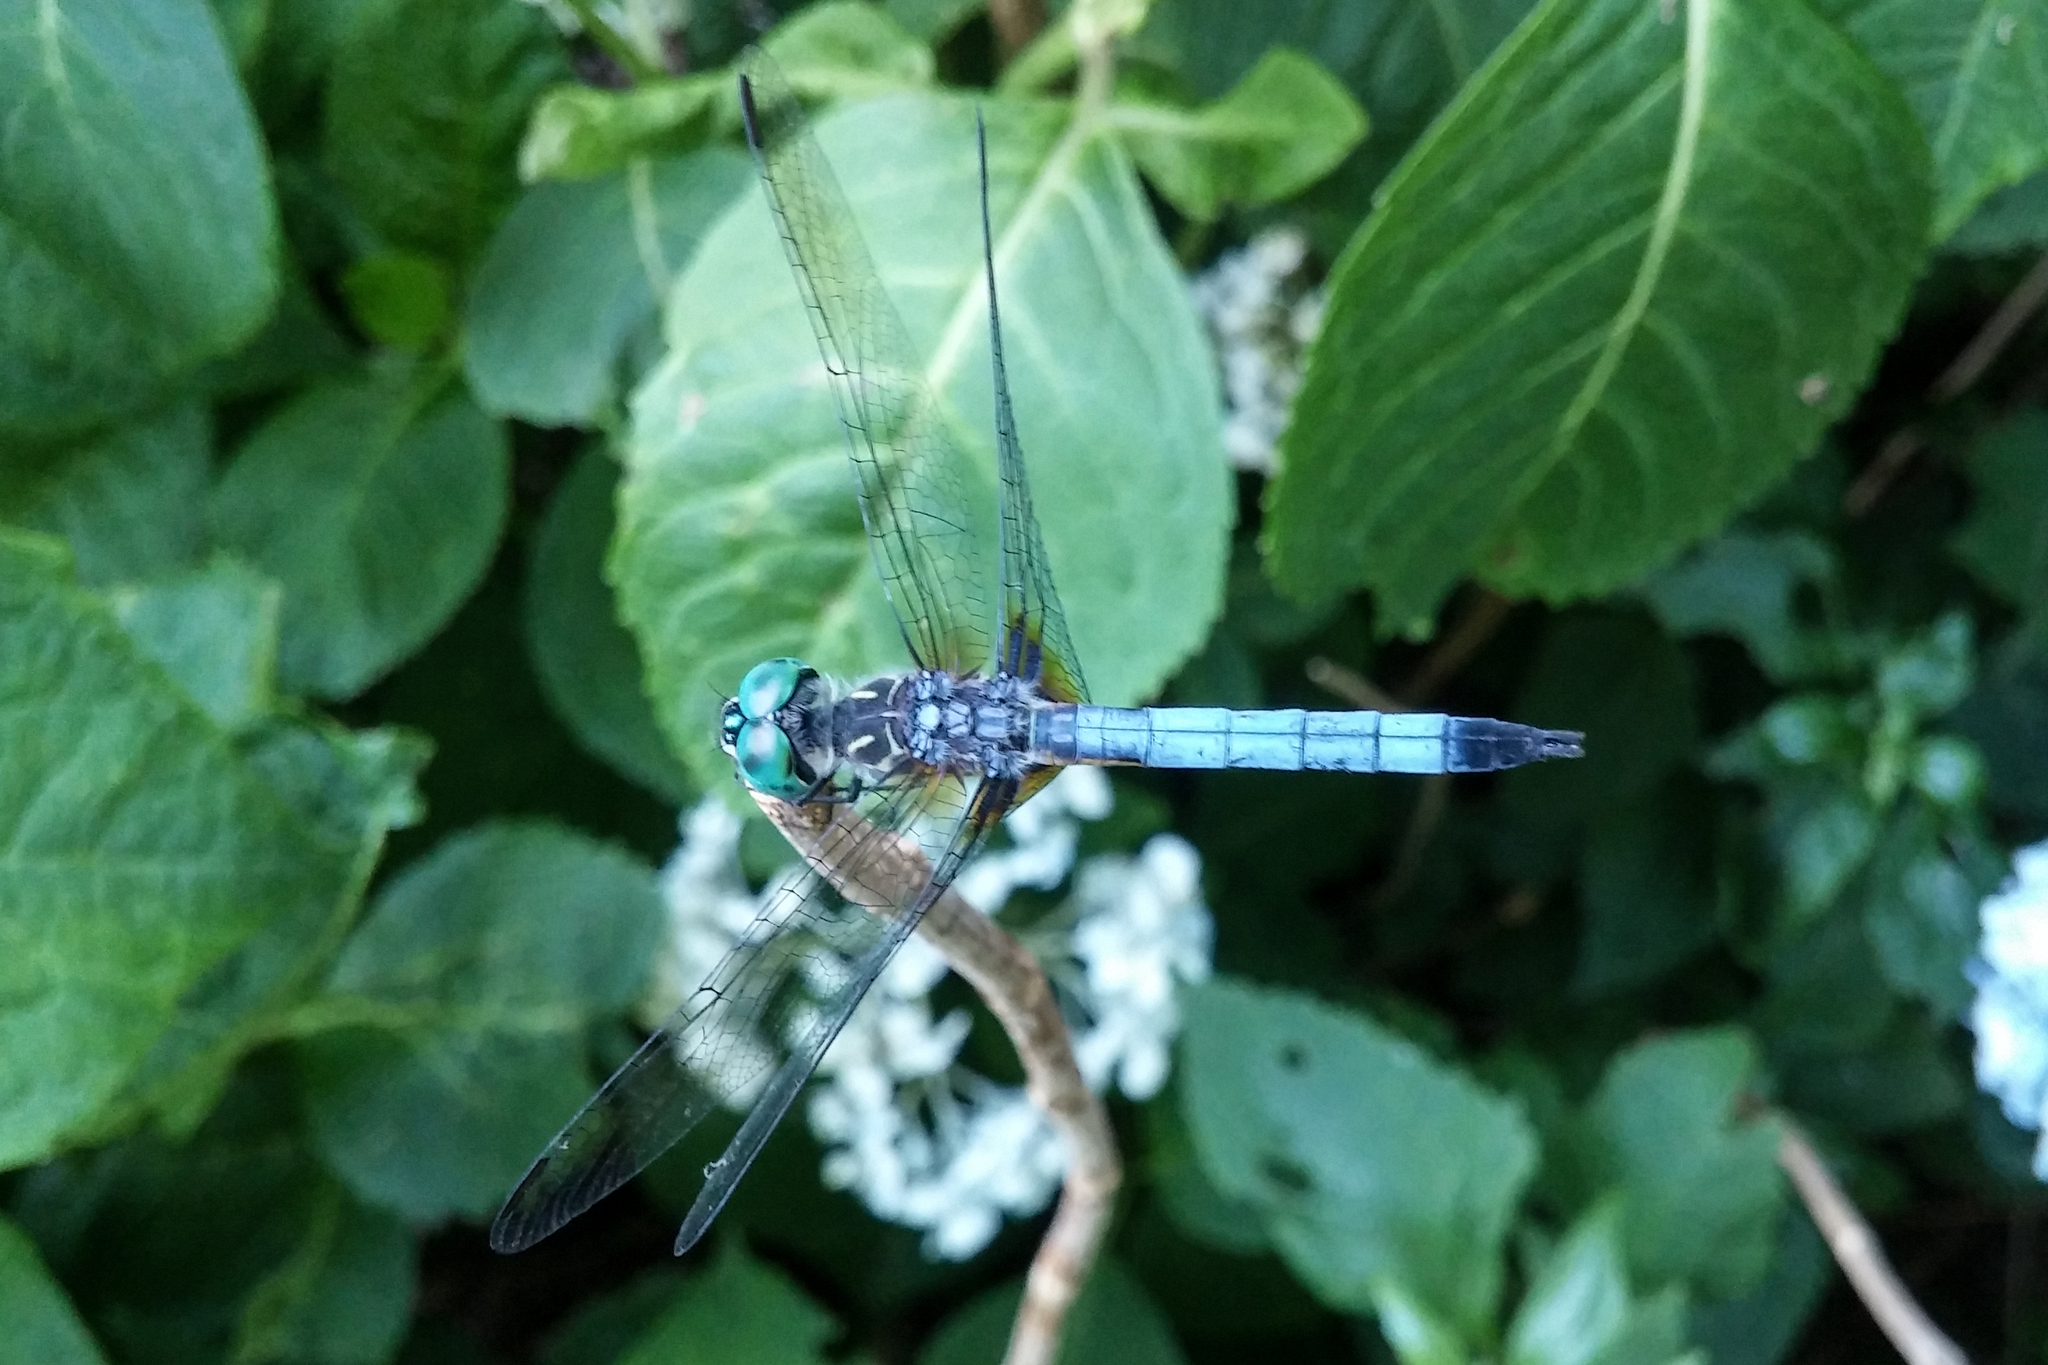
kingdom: Animalia
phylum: Arthropoda
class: Insecta
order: Odonata
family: Libellulidae
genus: Pachydiplax
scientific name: Pachydiplax longipennis
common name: Blue dasher
